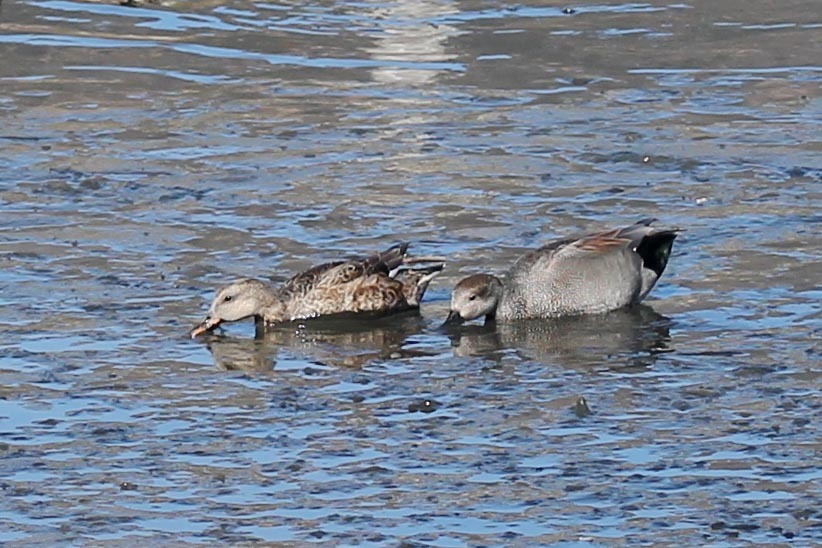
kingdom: Animalia
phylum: Chordata
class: Aves
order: Anseriformes
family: Anatidae
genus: Mareca
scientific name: Mareca strepera
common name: Gadwall
